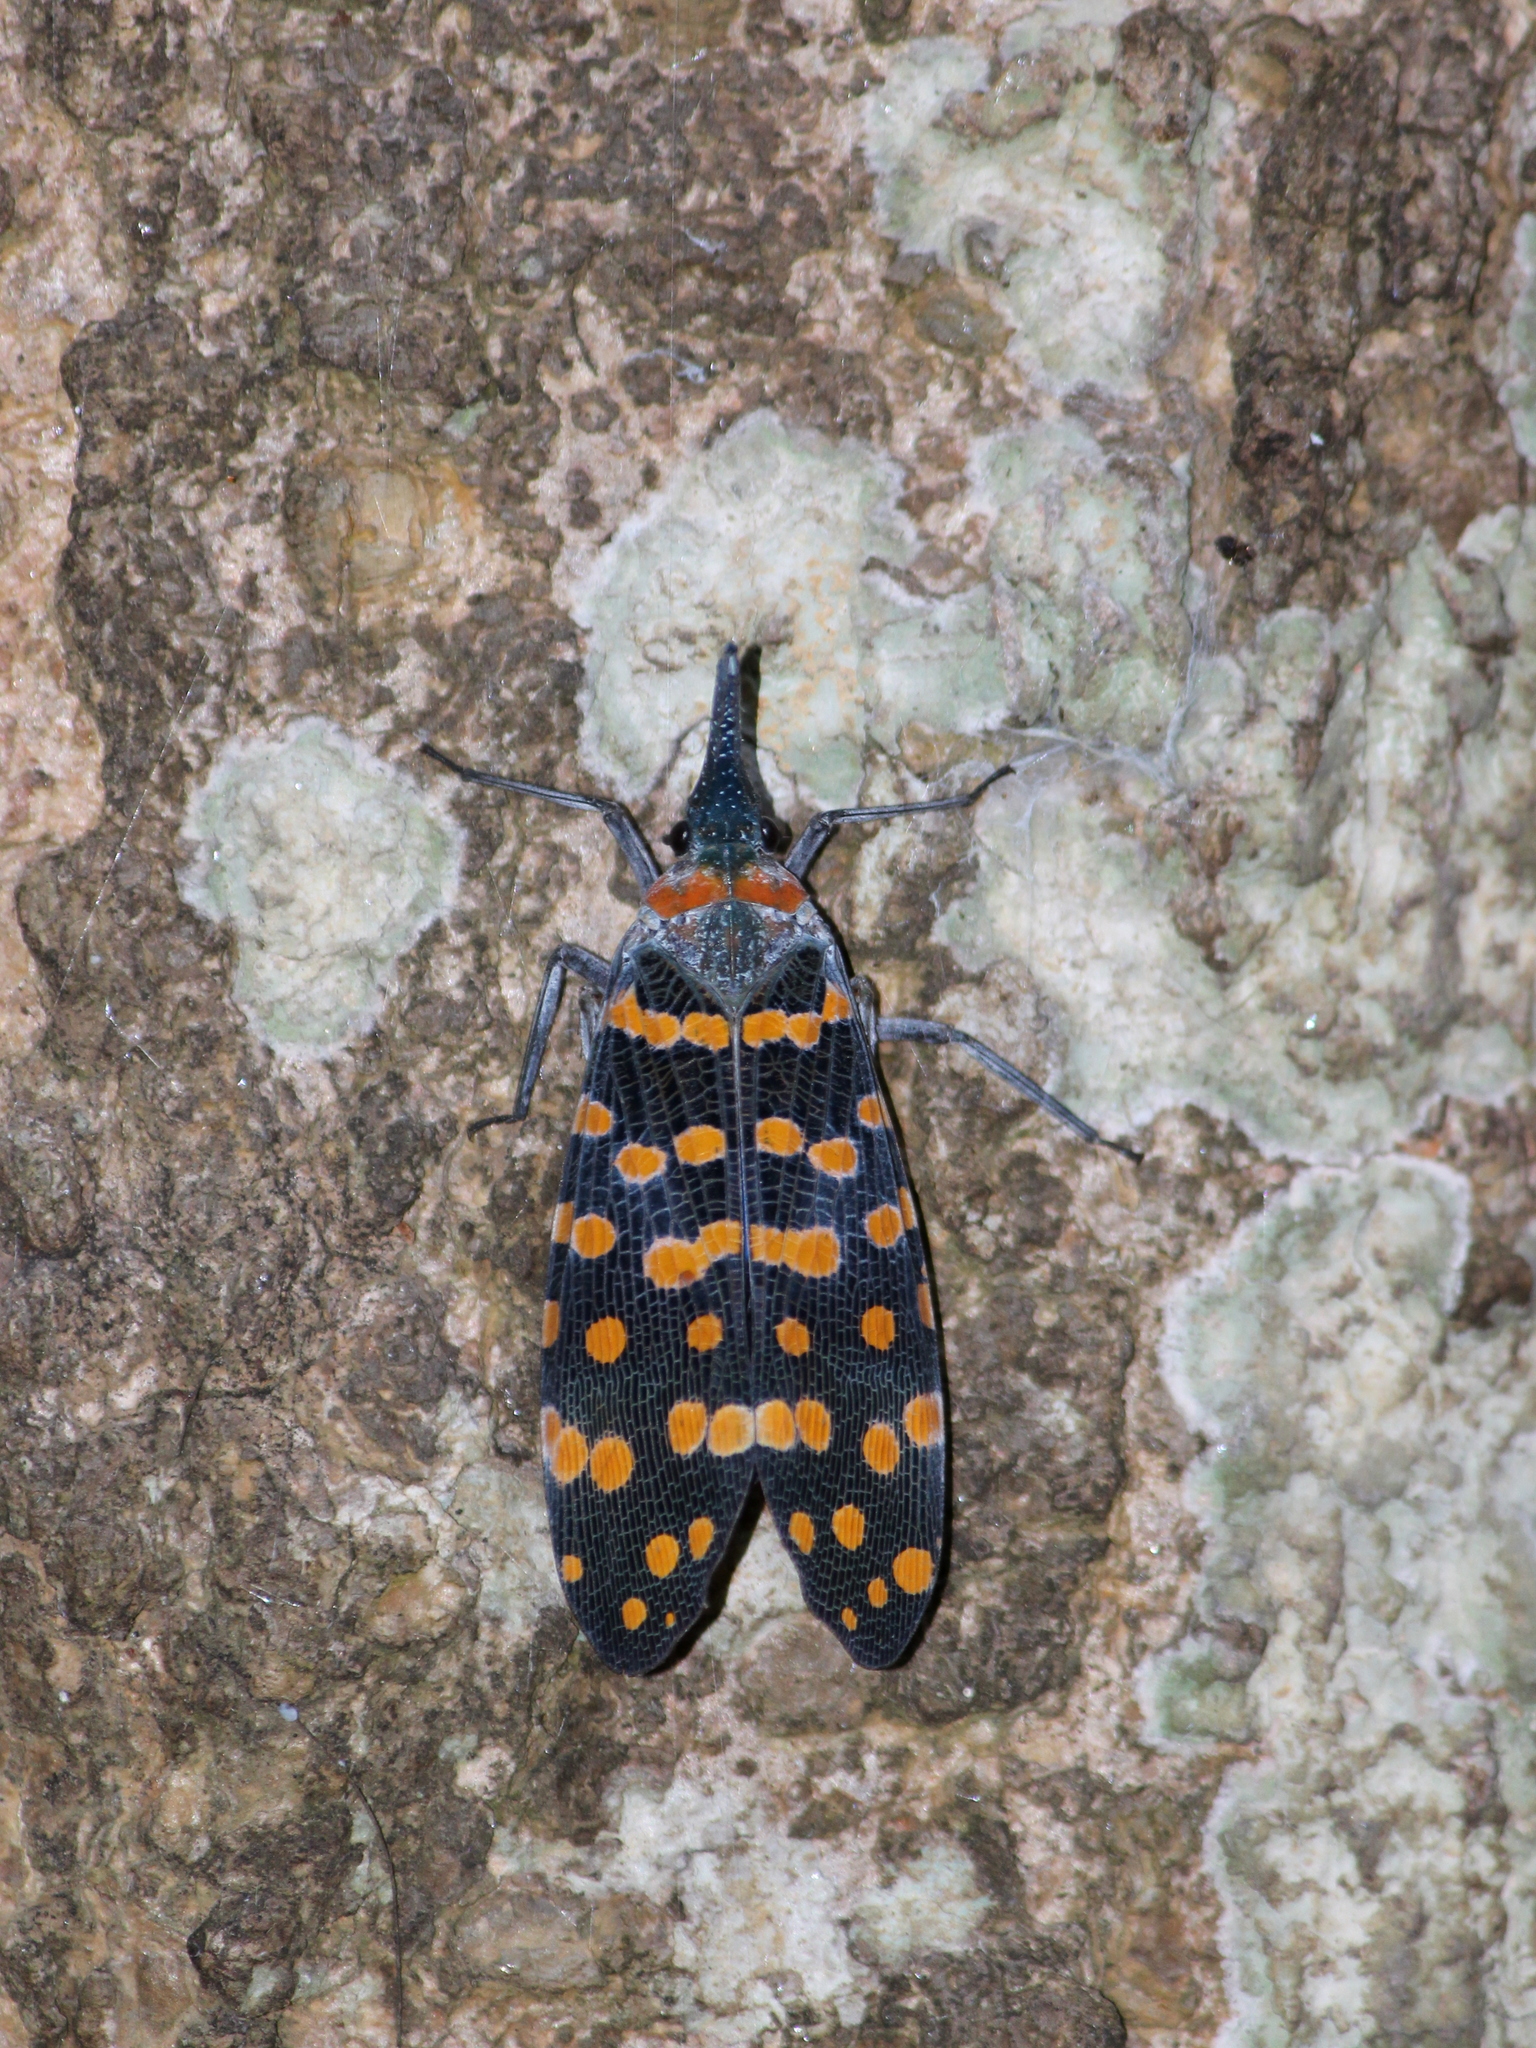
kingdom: Animalia
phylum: Arthropoda
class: Insecta
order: Hemiptera
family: Fulgoridae
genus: Pyrops
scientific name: Pyrops
